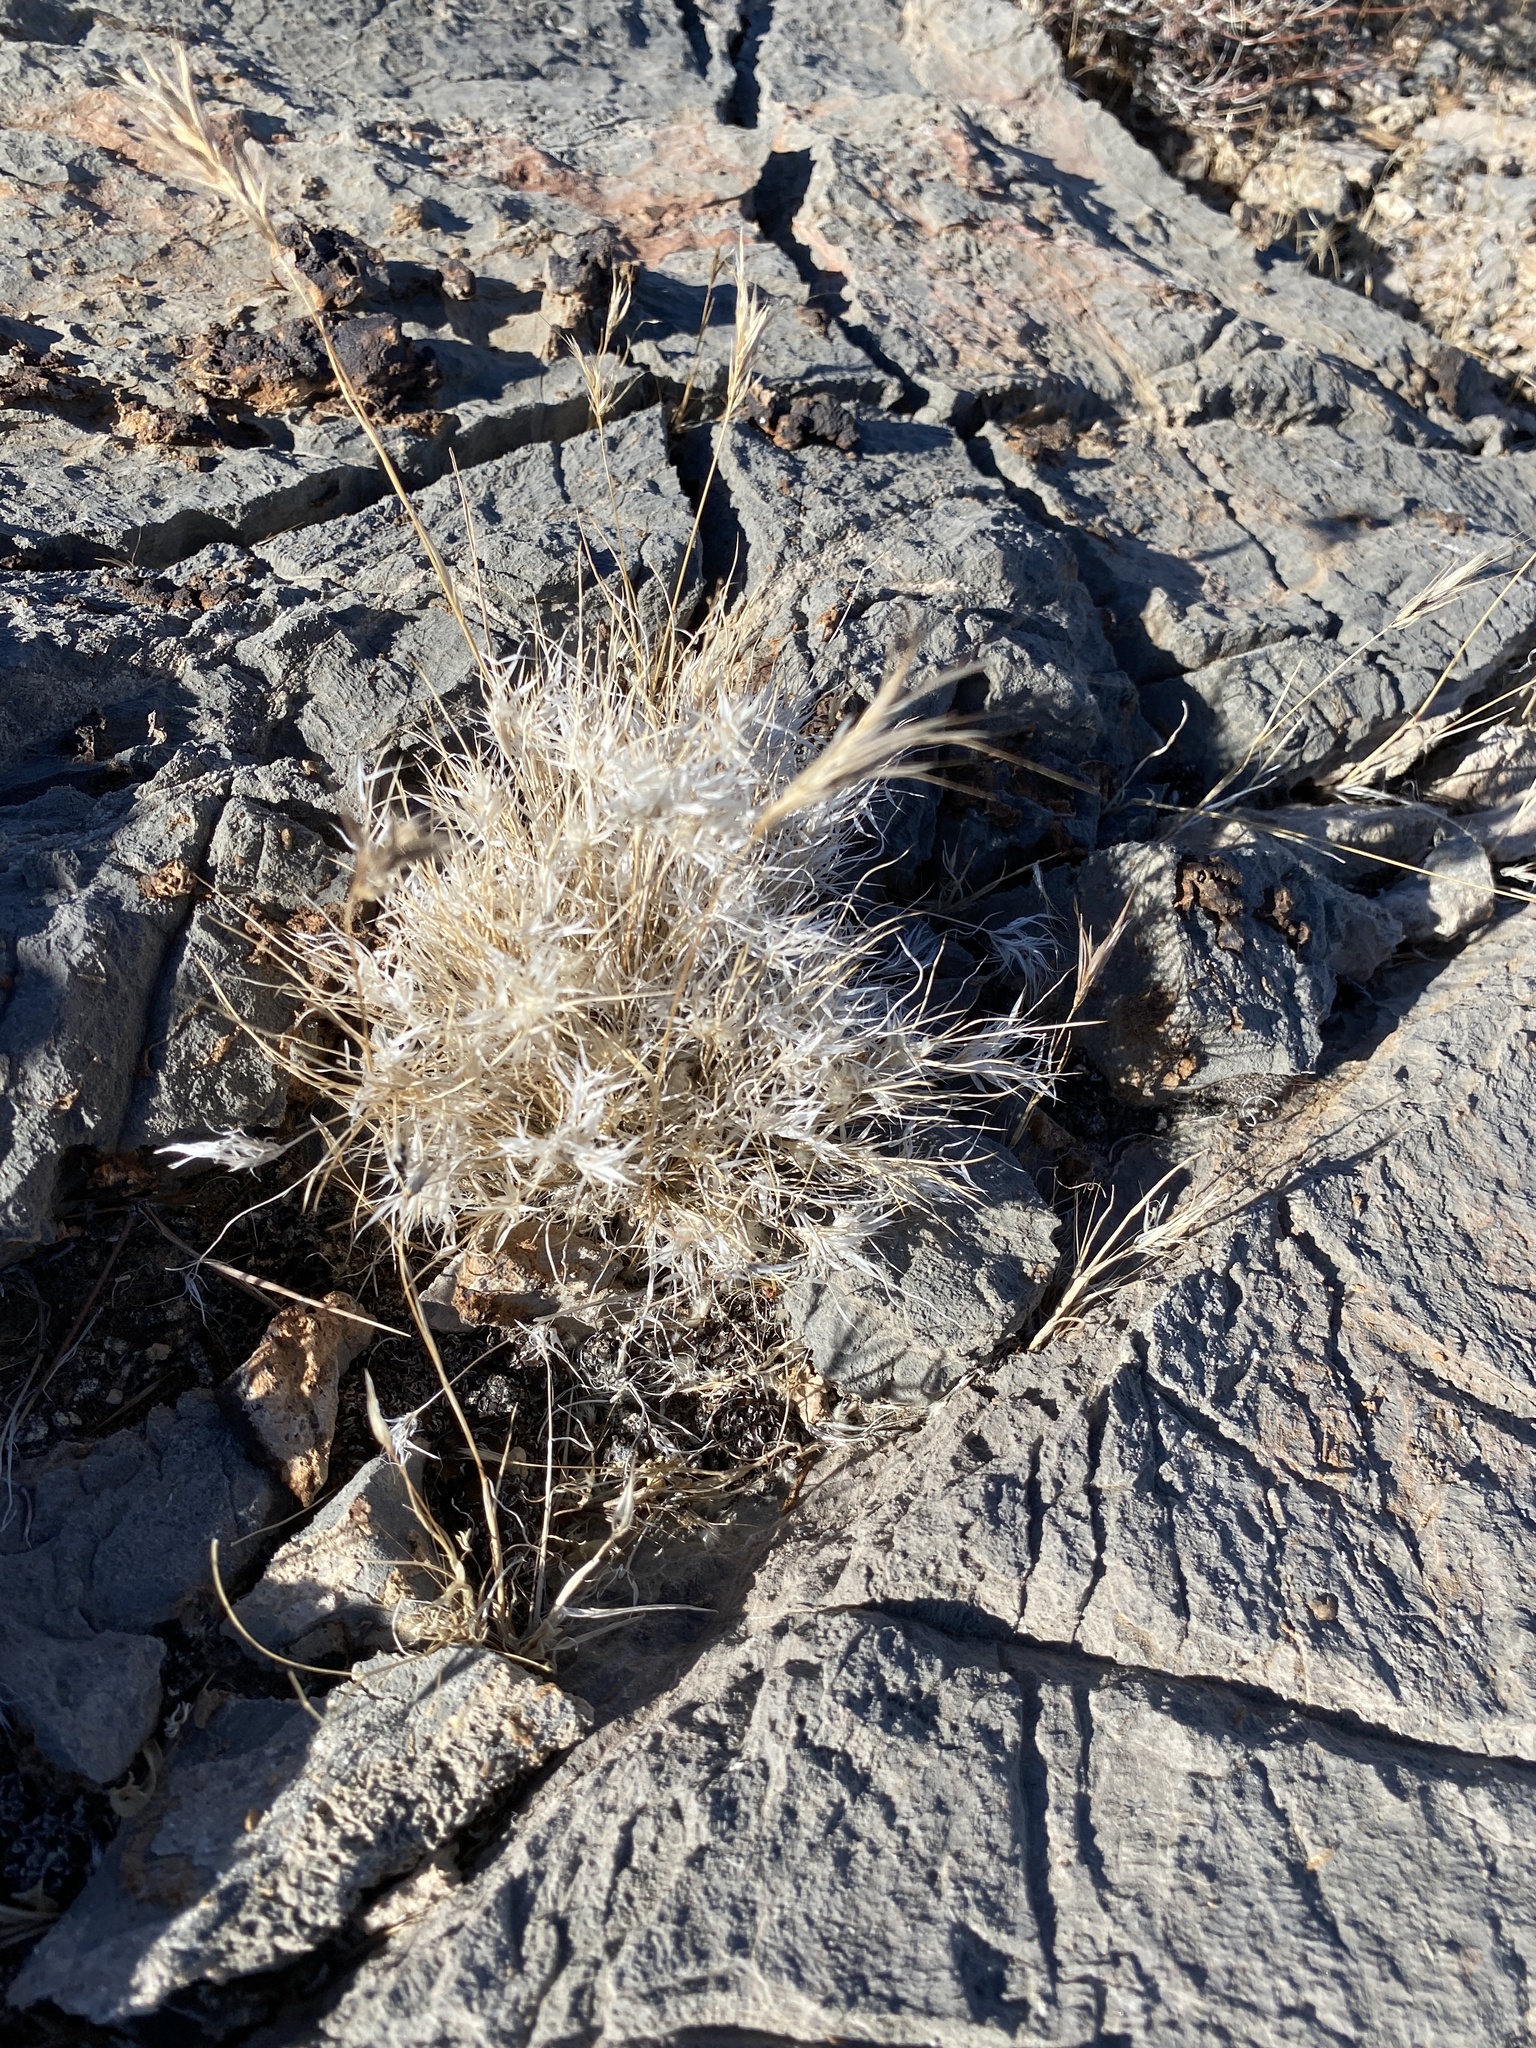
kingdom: Plantae
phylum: Tracheophyta
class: Liliopsida
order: Poales
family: Poaceae
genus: Dasyochloa
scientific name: Dasyochloa pulchella
